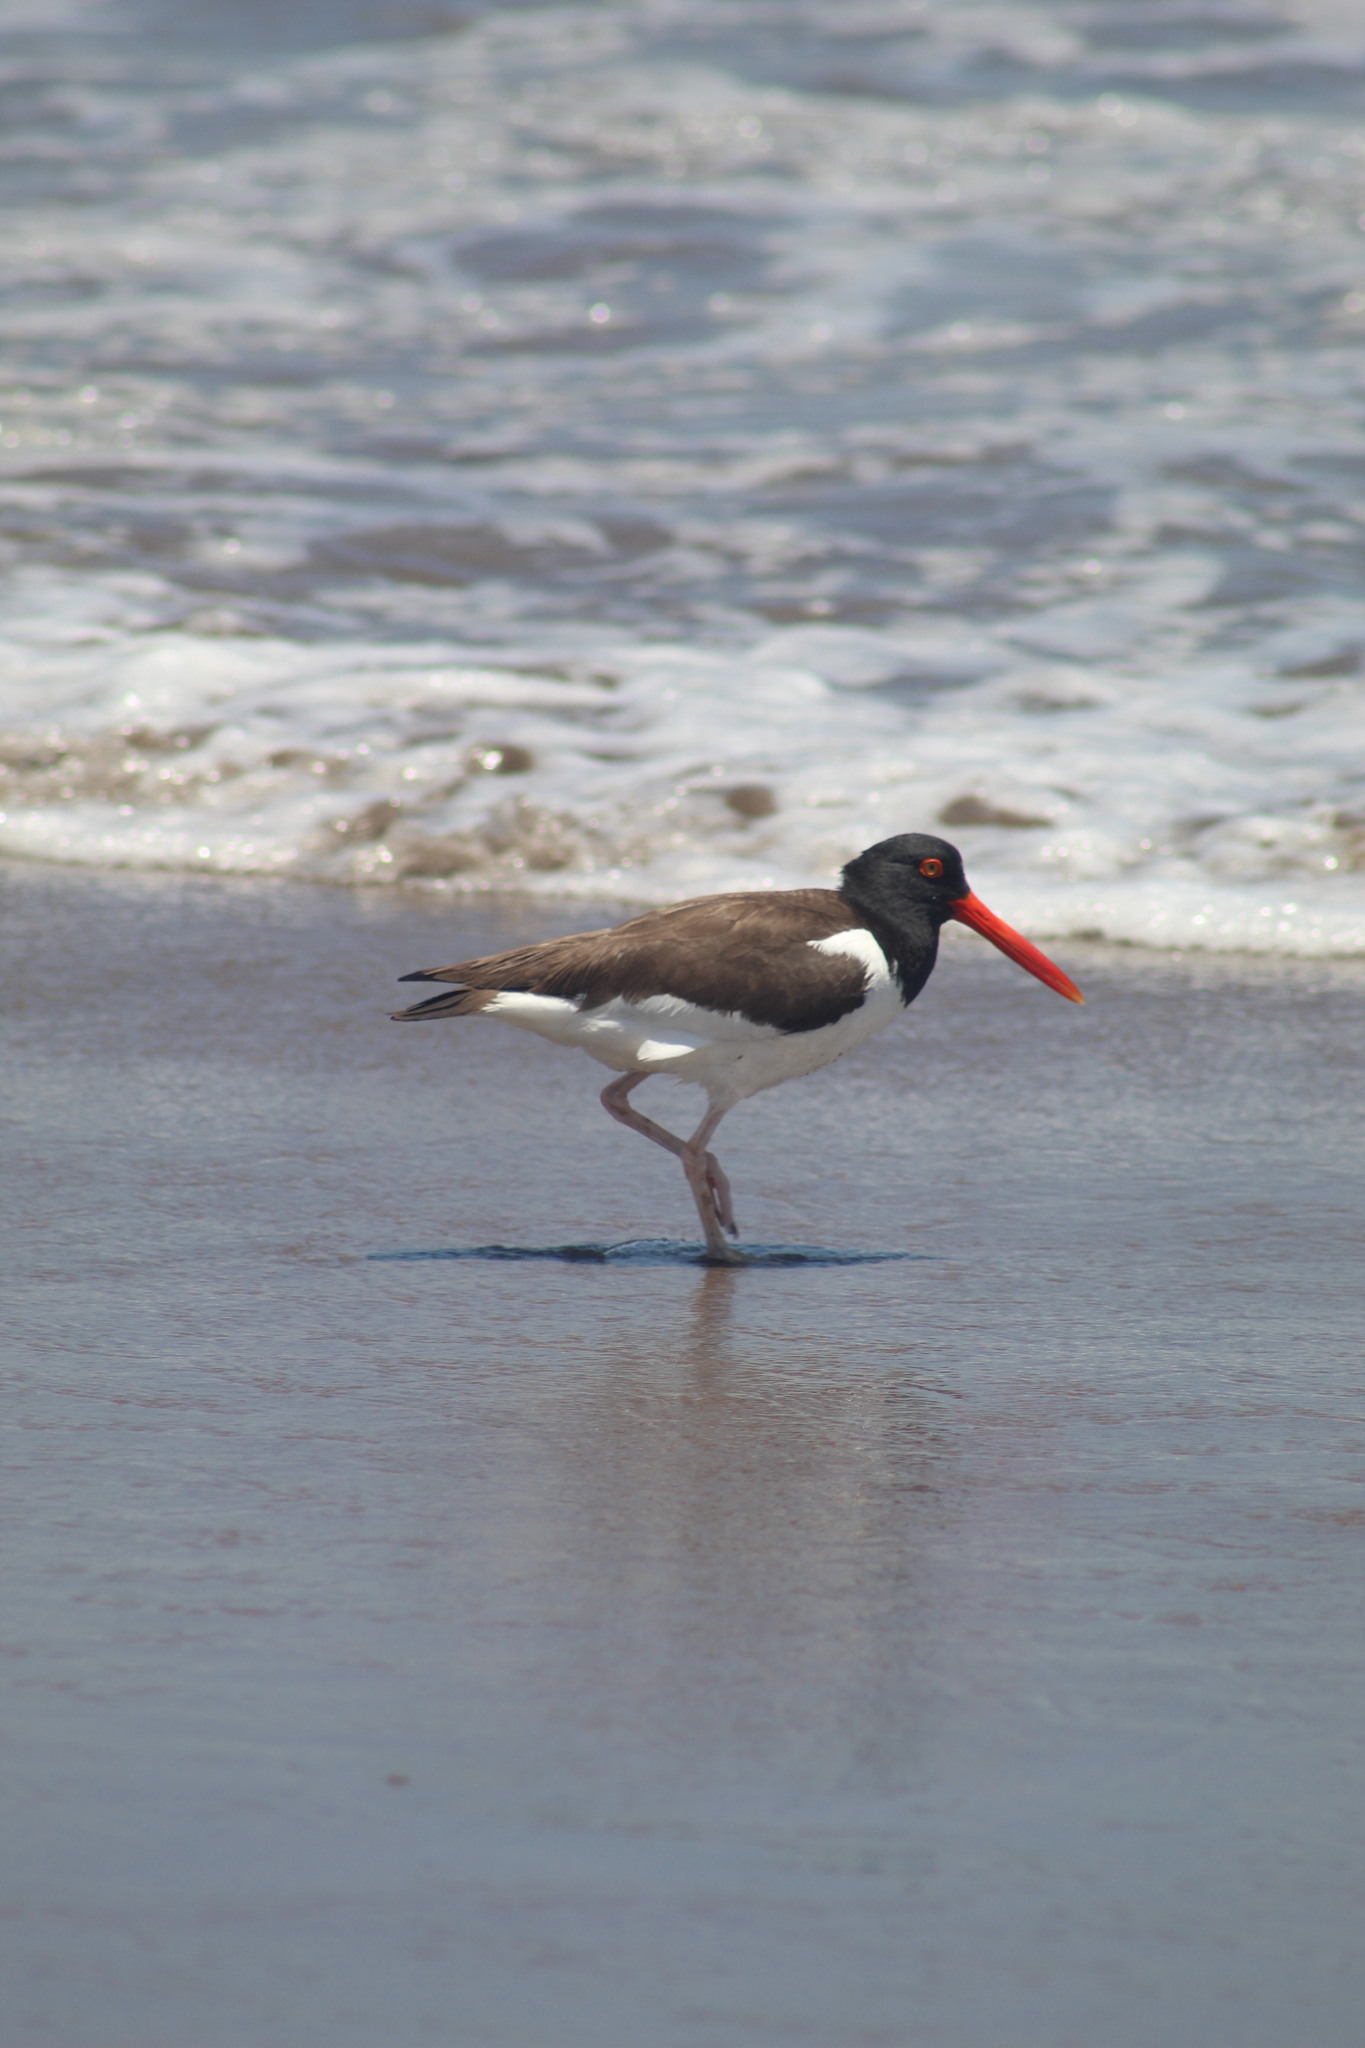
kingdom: Animalia
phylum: Chordata
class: Aves
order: Charadriiformes
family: Haematopodidae
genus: Haematopus
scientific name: Haematopus palliatus
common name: American oystercatcher
